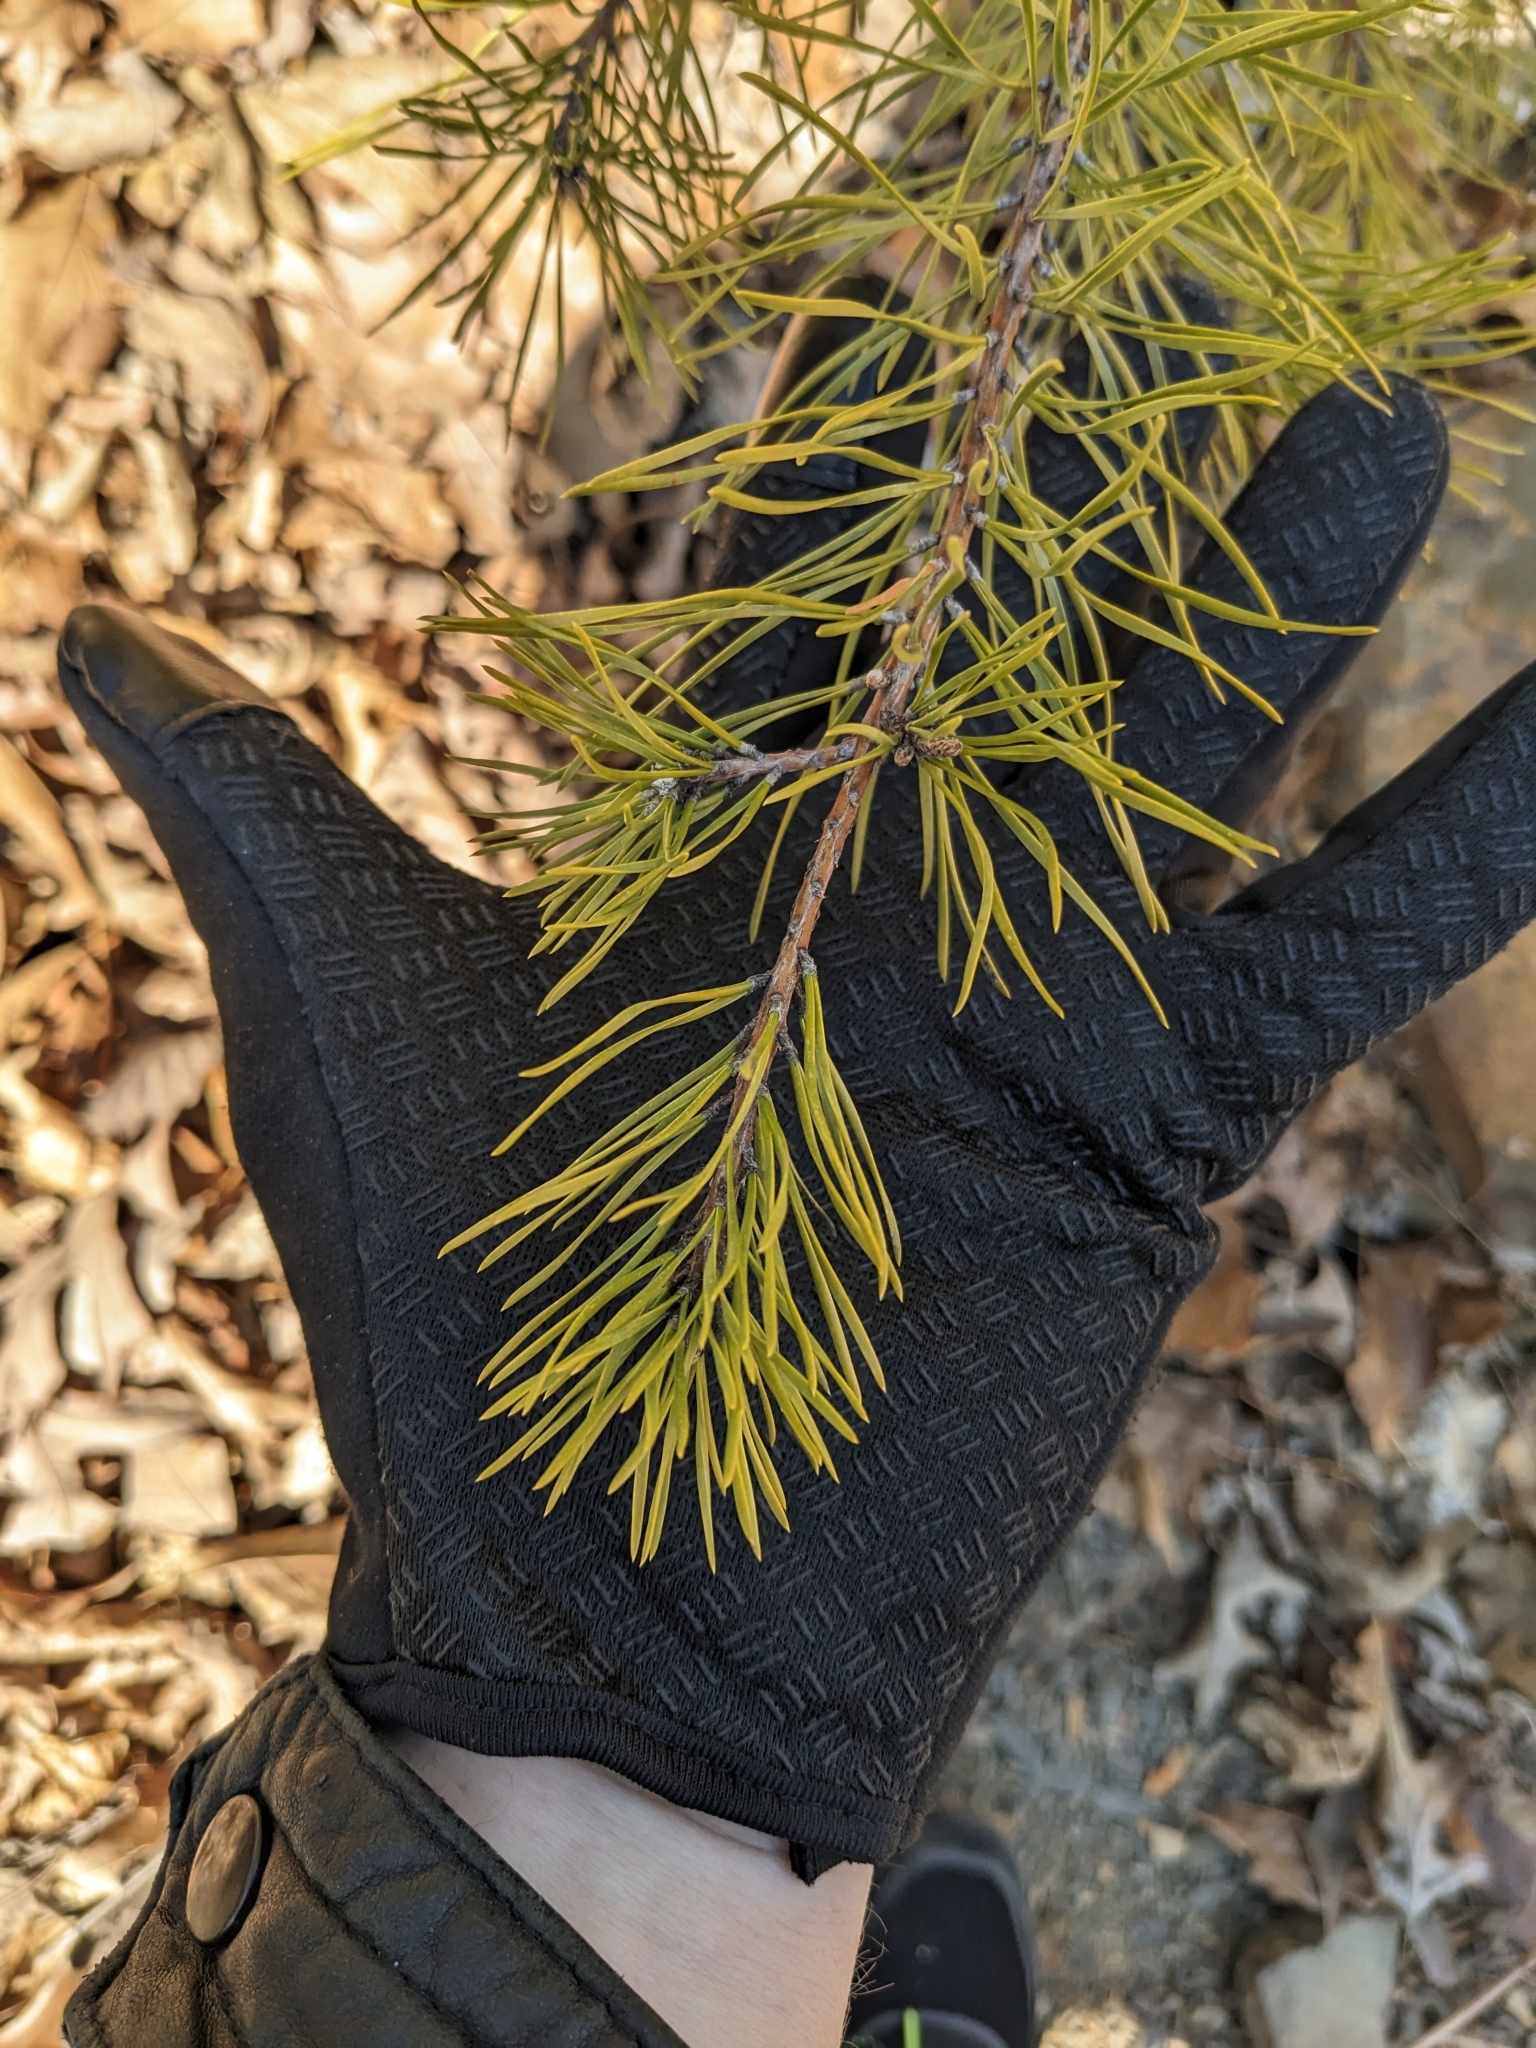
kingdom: Plantae
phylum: Tracheophyta
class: Pinopsida
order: Pinales
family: Pinaceae
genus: Pinus
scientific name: Pinus virginiana
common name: Scrub pine
